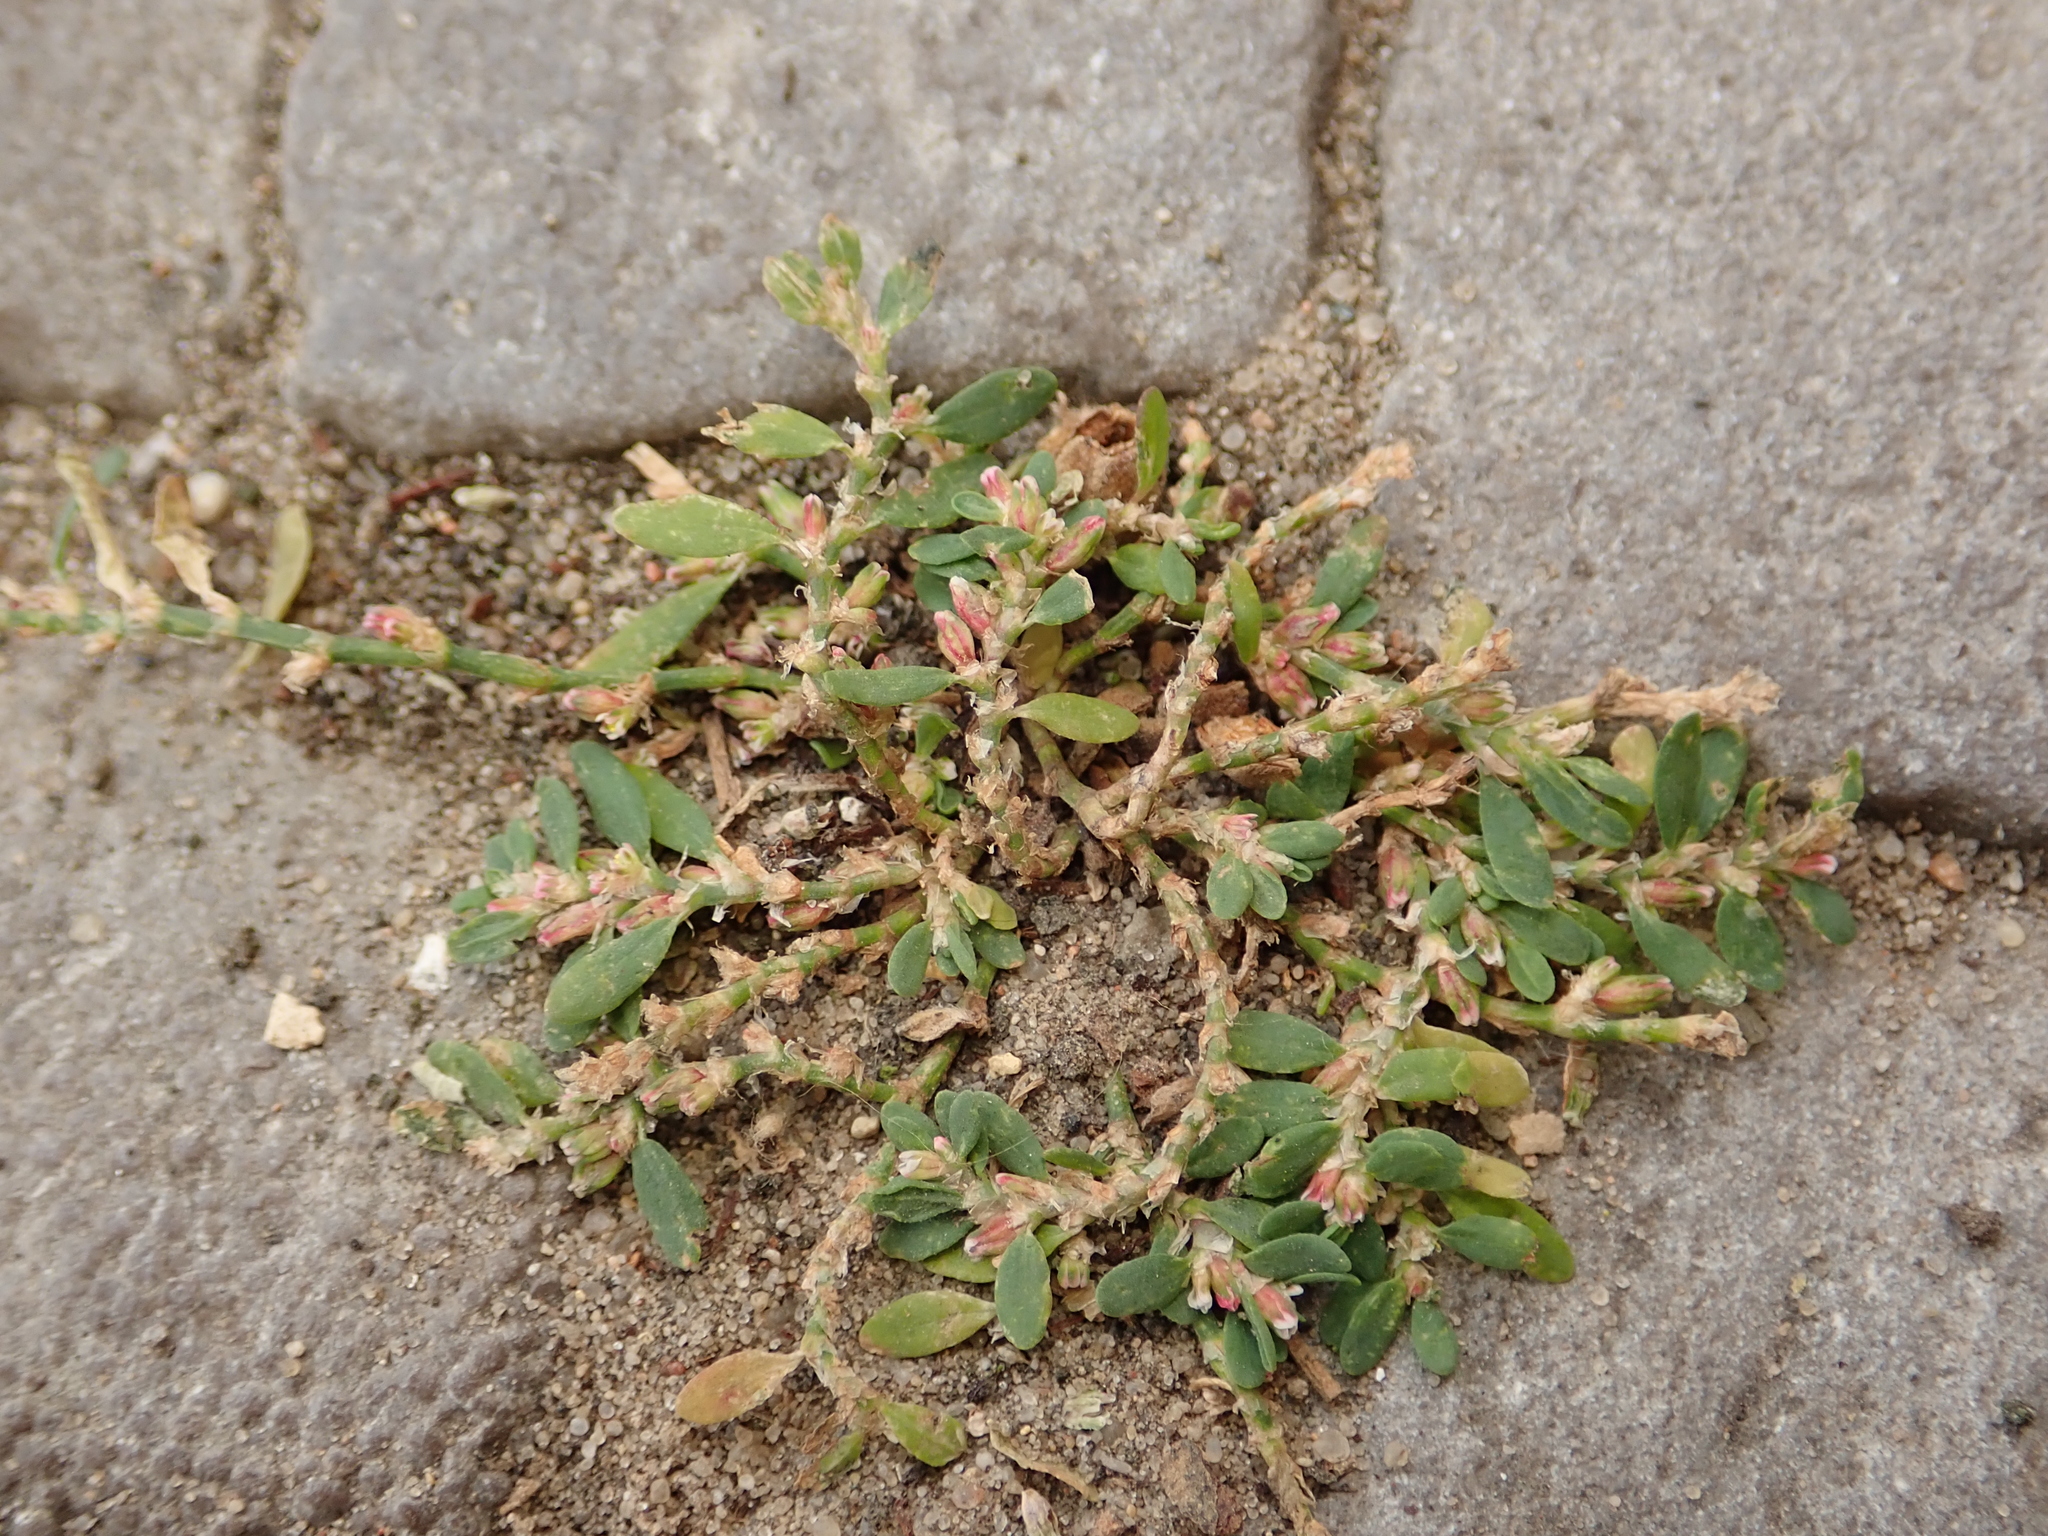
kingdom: Plantae
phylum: Tracheophyta
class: Magnoliopsida
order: Caryophyllales
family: Polygonaceae
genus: Polygonum
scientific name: Polygonum aviculare
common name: Prostrate knotweed
